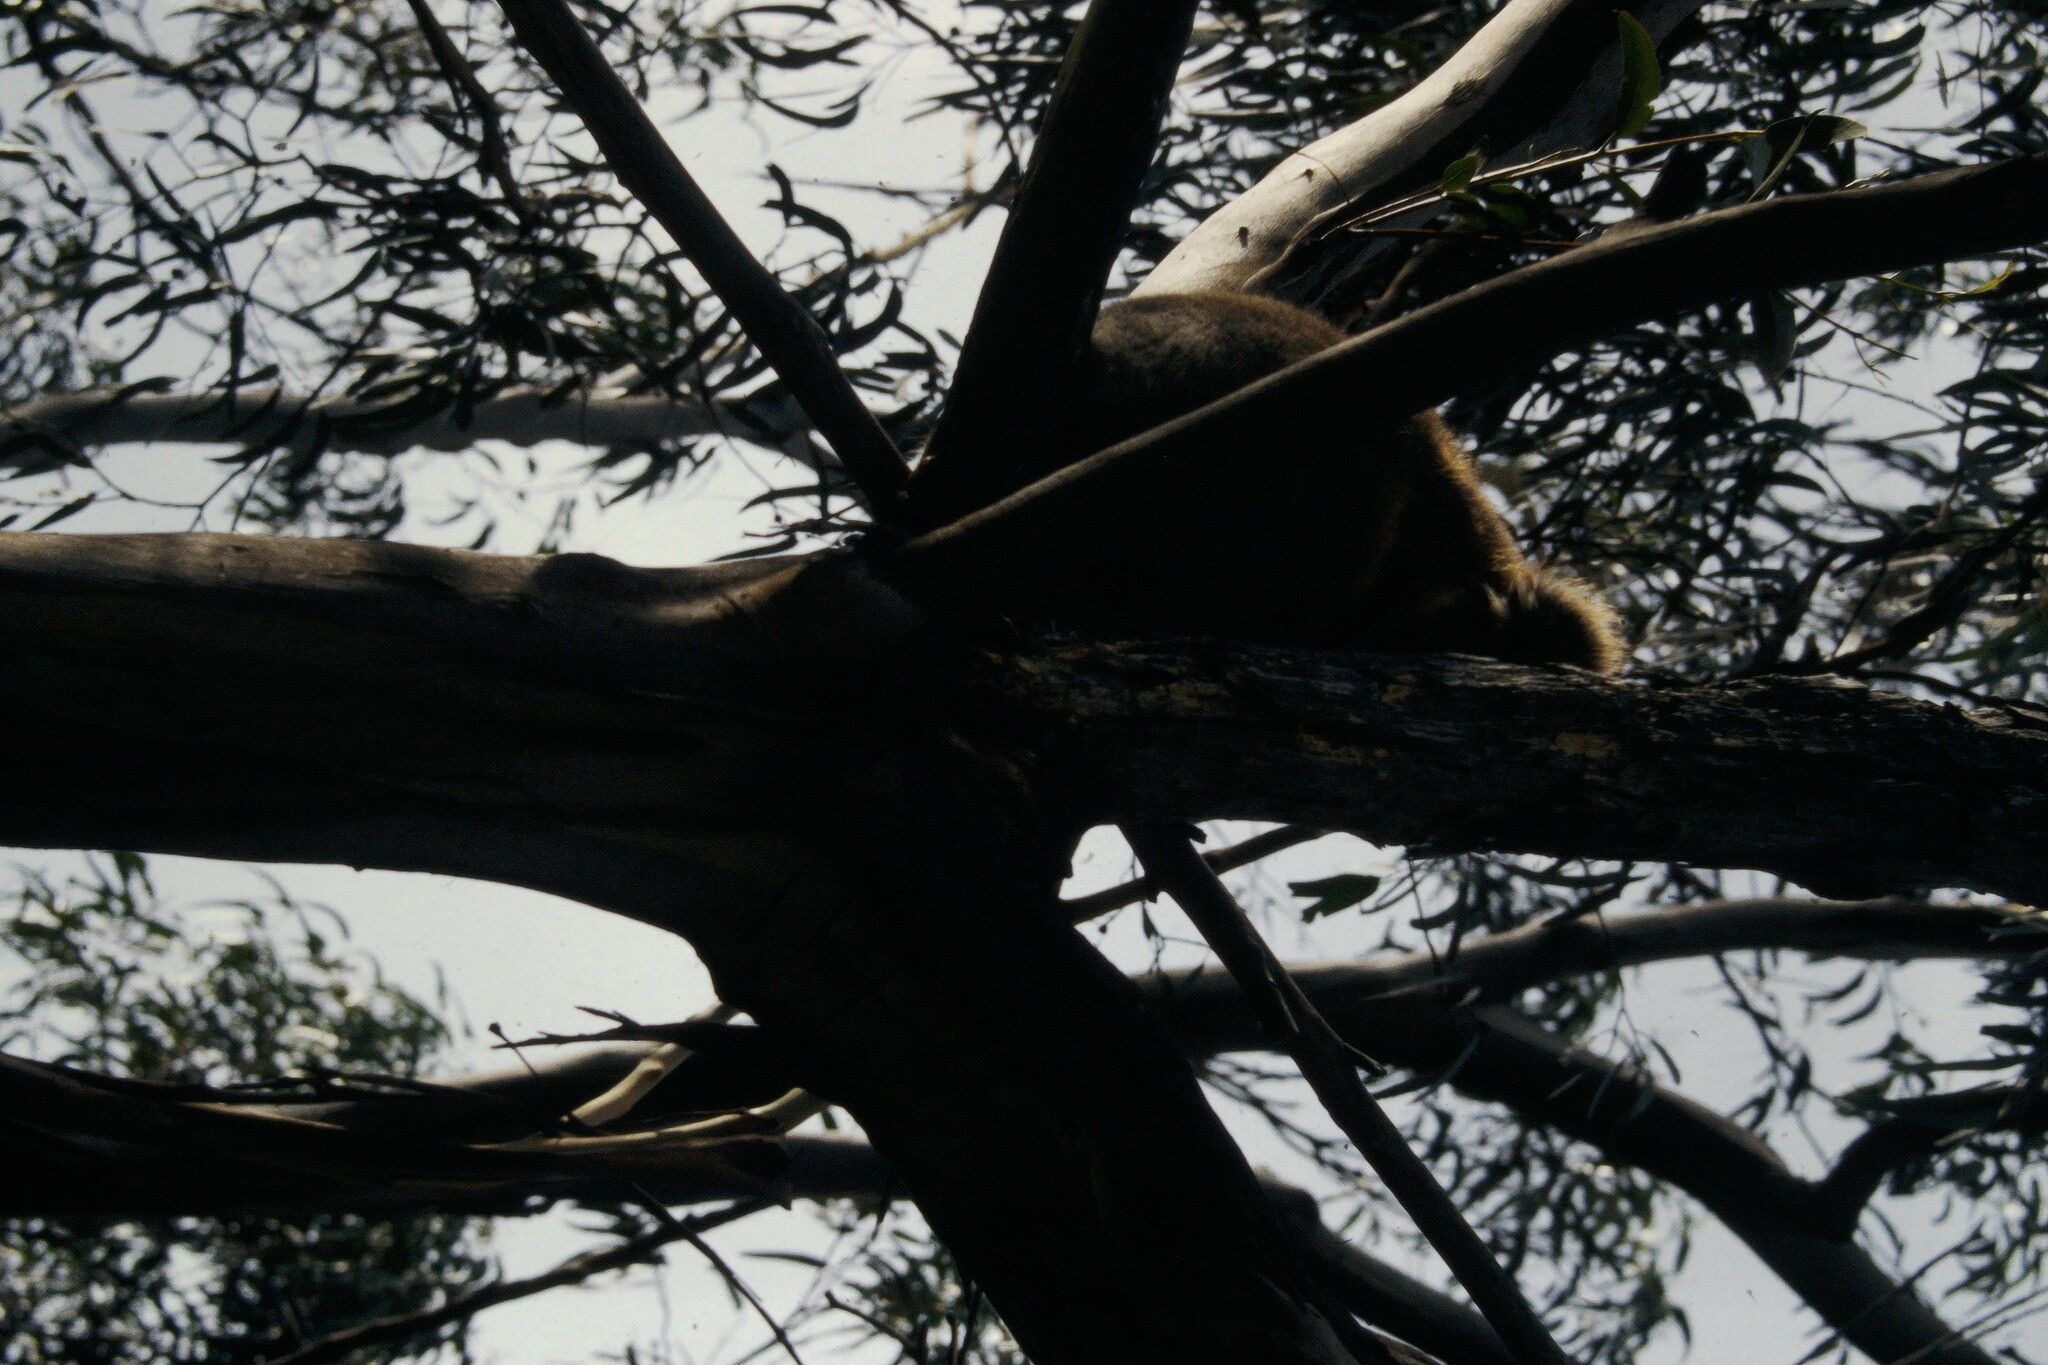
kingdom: Animalia
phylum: Chordata
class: Mammalia
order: Diprotodontia
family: Phascolarctidae
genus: Phascolarctos
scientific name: Phascolarctos cinereus
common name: Koala
